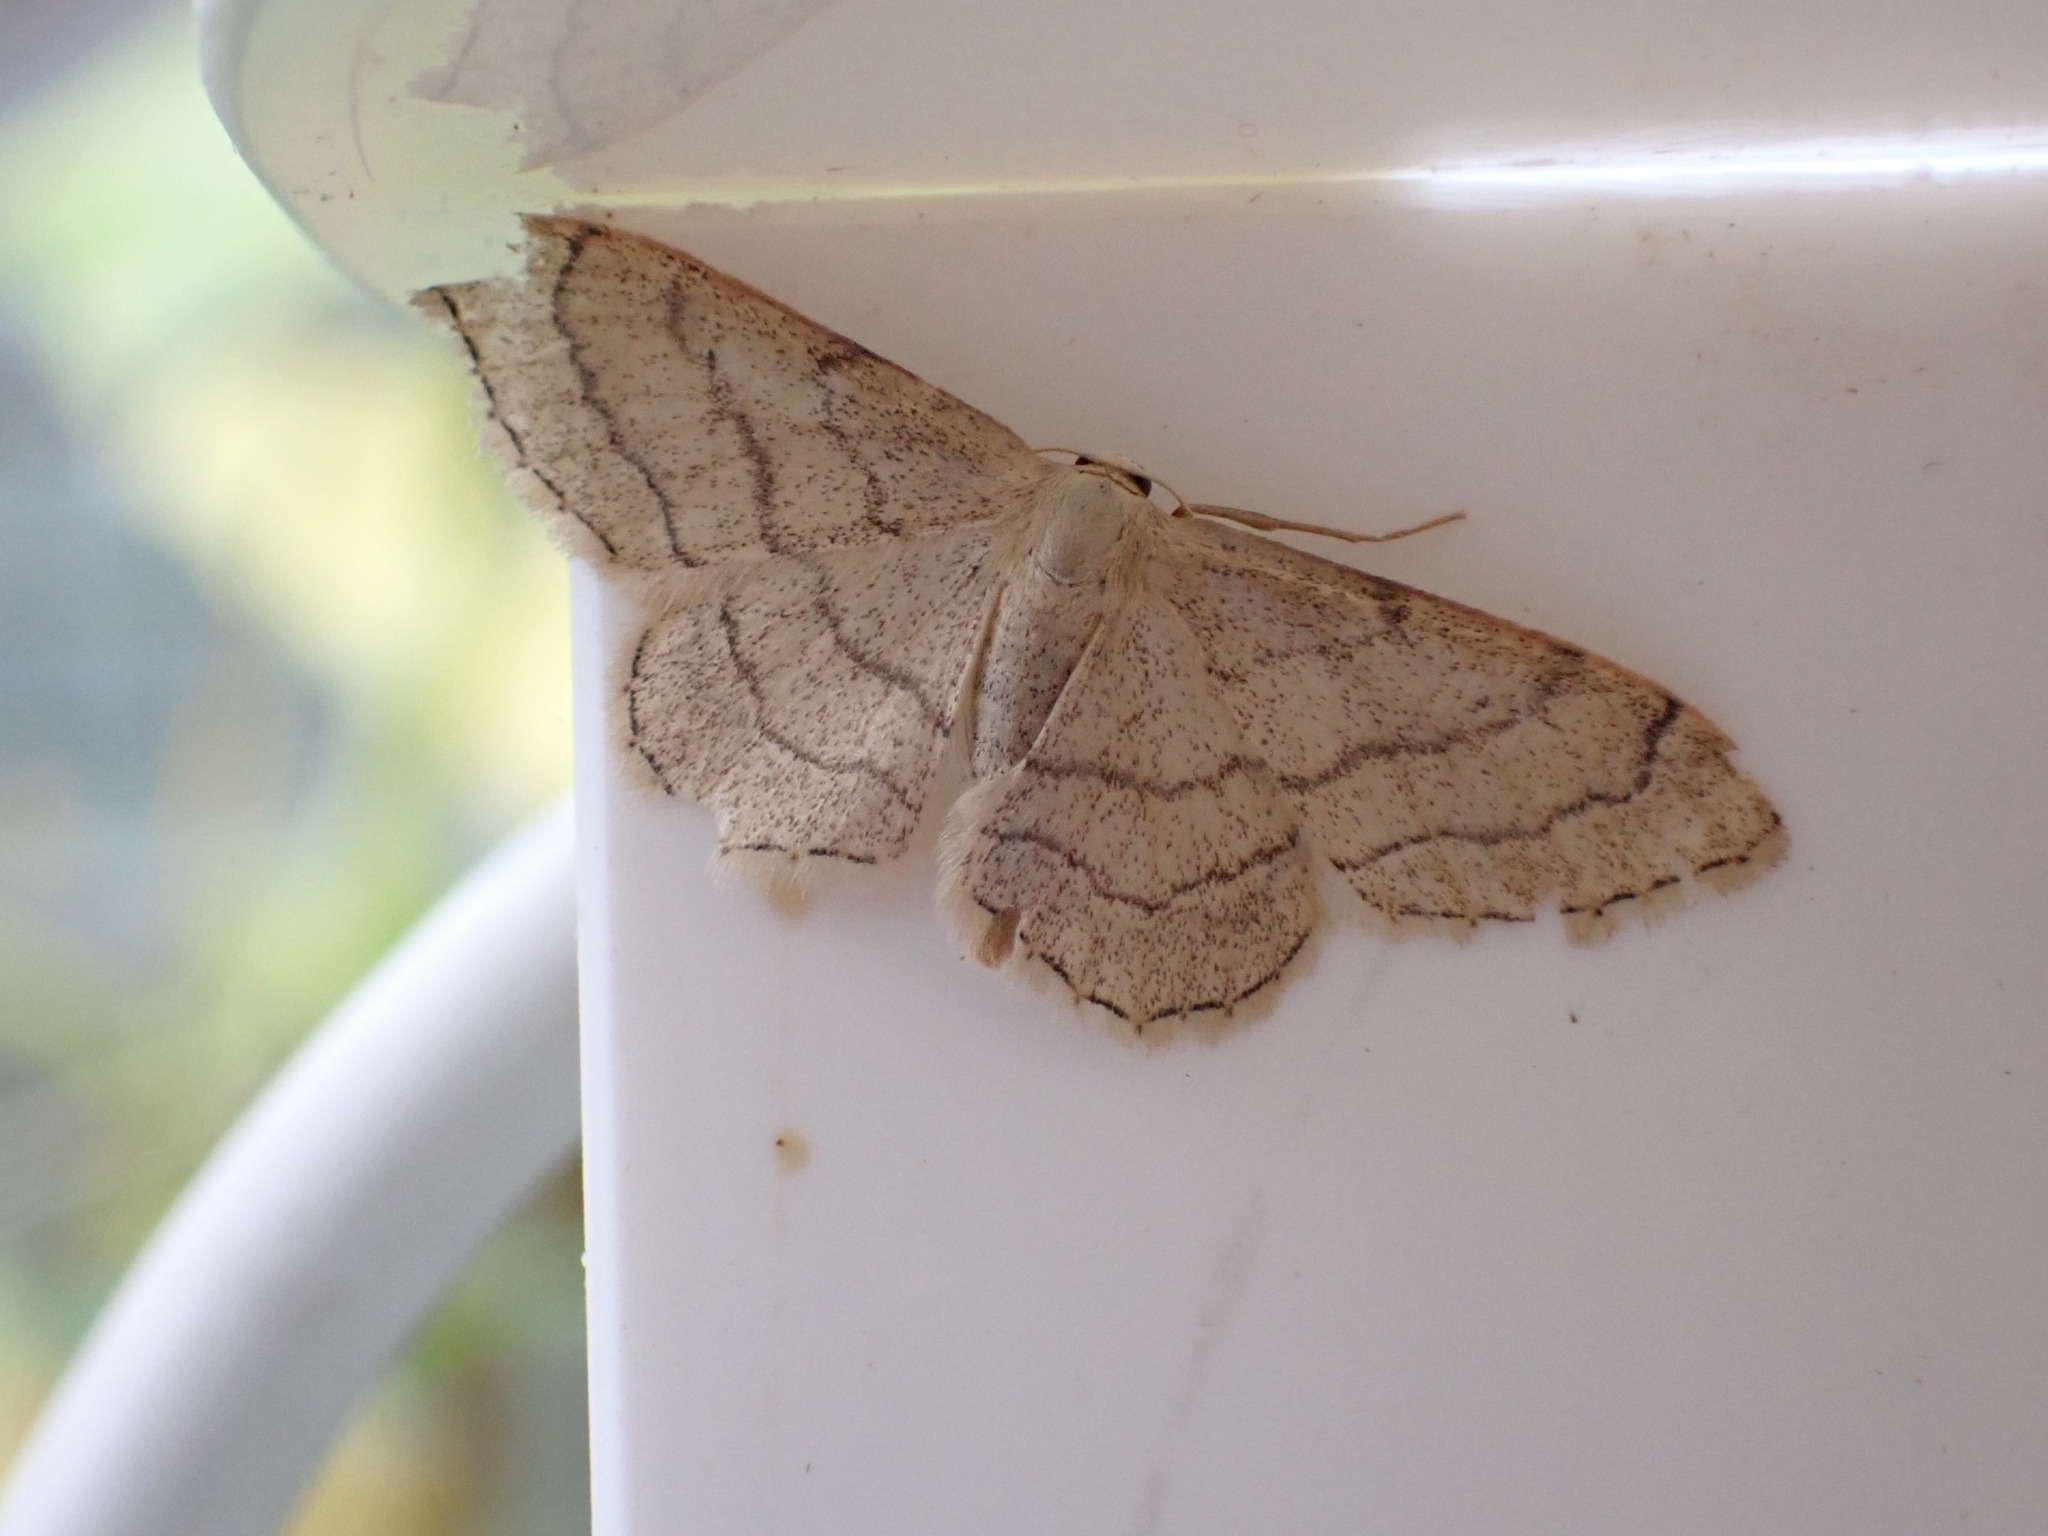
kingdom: Animalia
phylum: Arthropoda
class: Insecta
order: Lepidoptera
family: Geometridae
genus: Idaea
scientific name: Idaea aversata
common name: Riband wave
